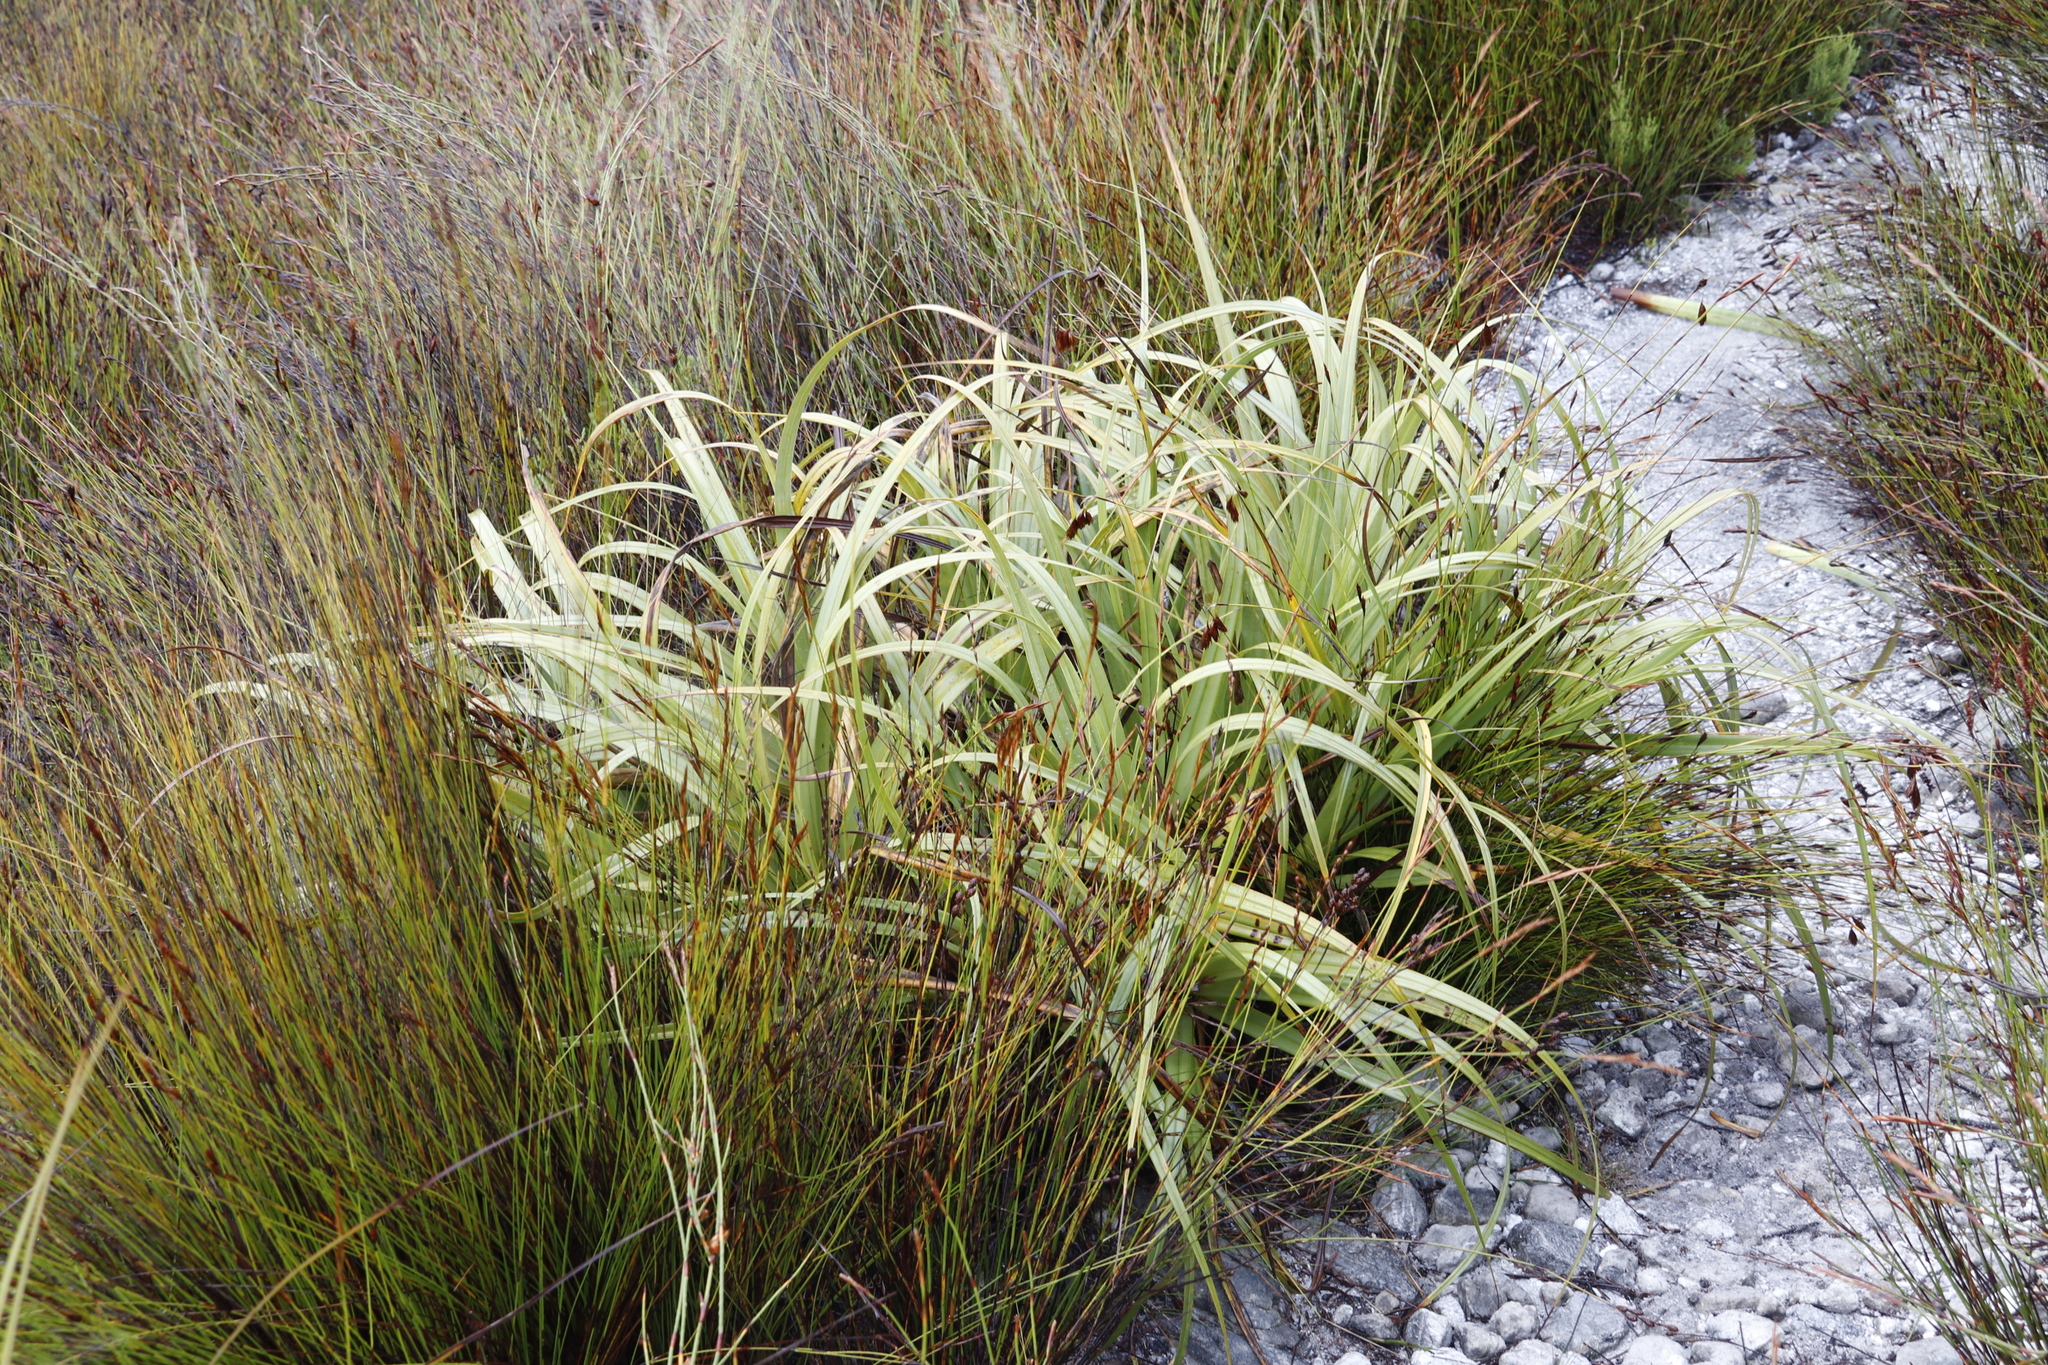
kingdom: Plantae
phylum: Tracheophyta
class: Liliopsida
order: Poales
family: Cyperaceae
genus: Tetraria
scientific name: Tetraria thermalis
